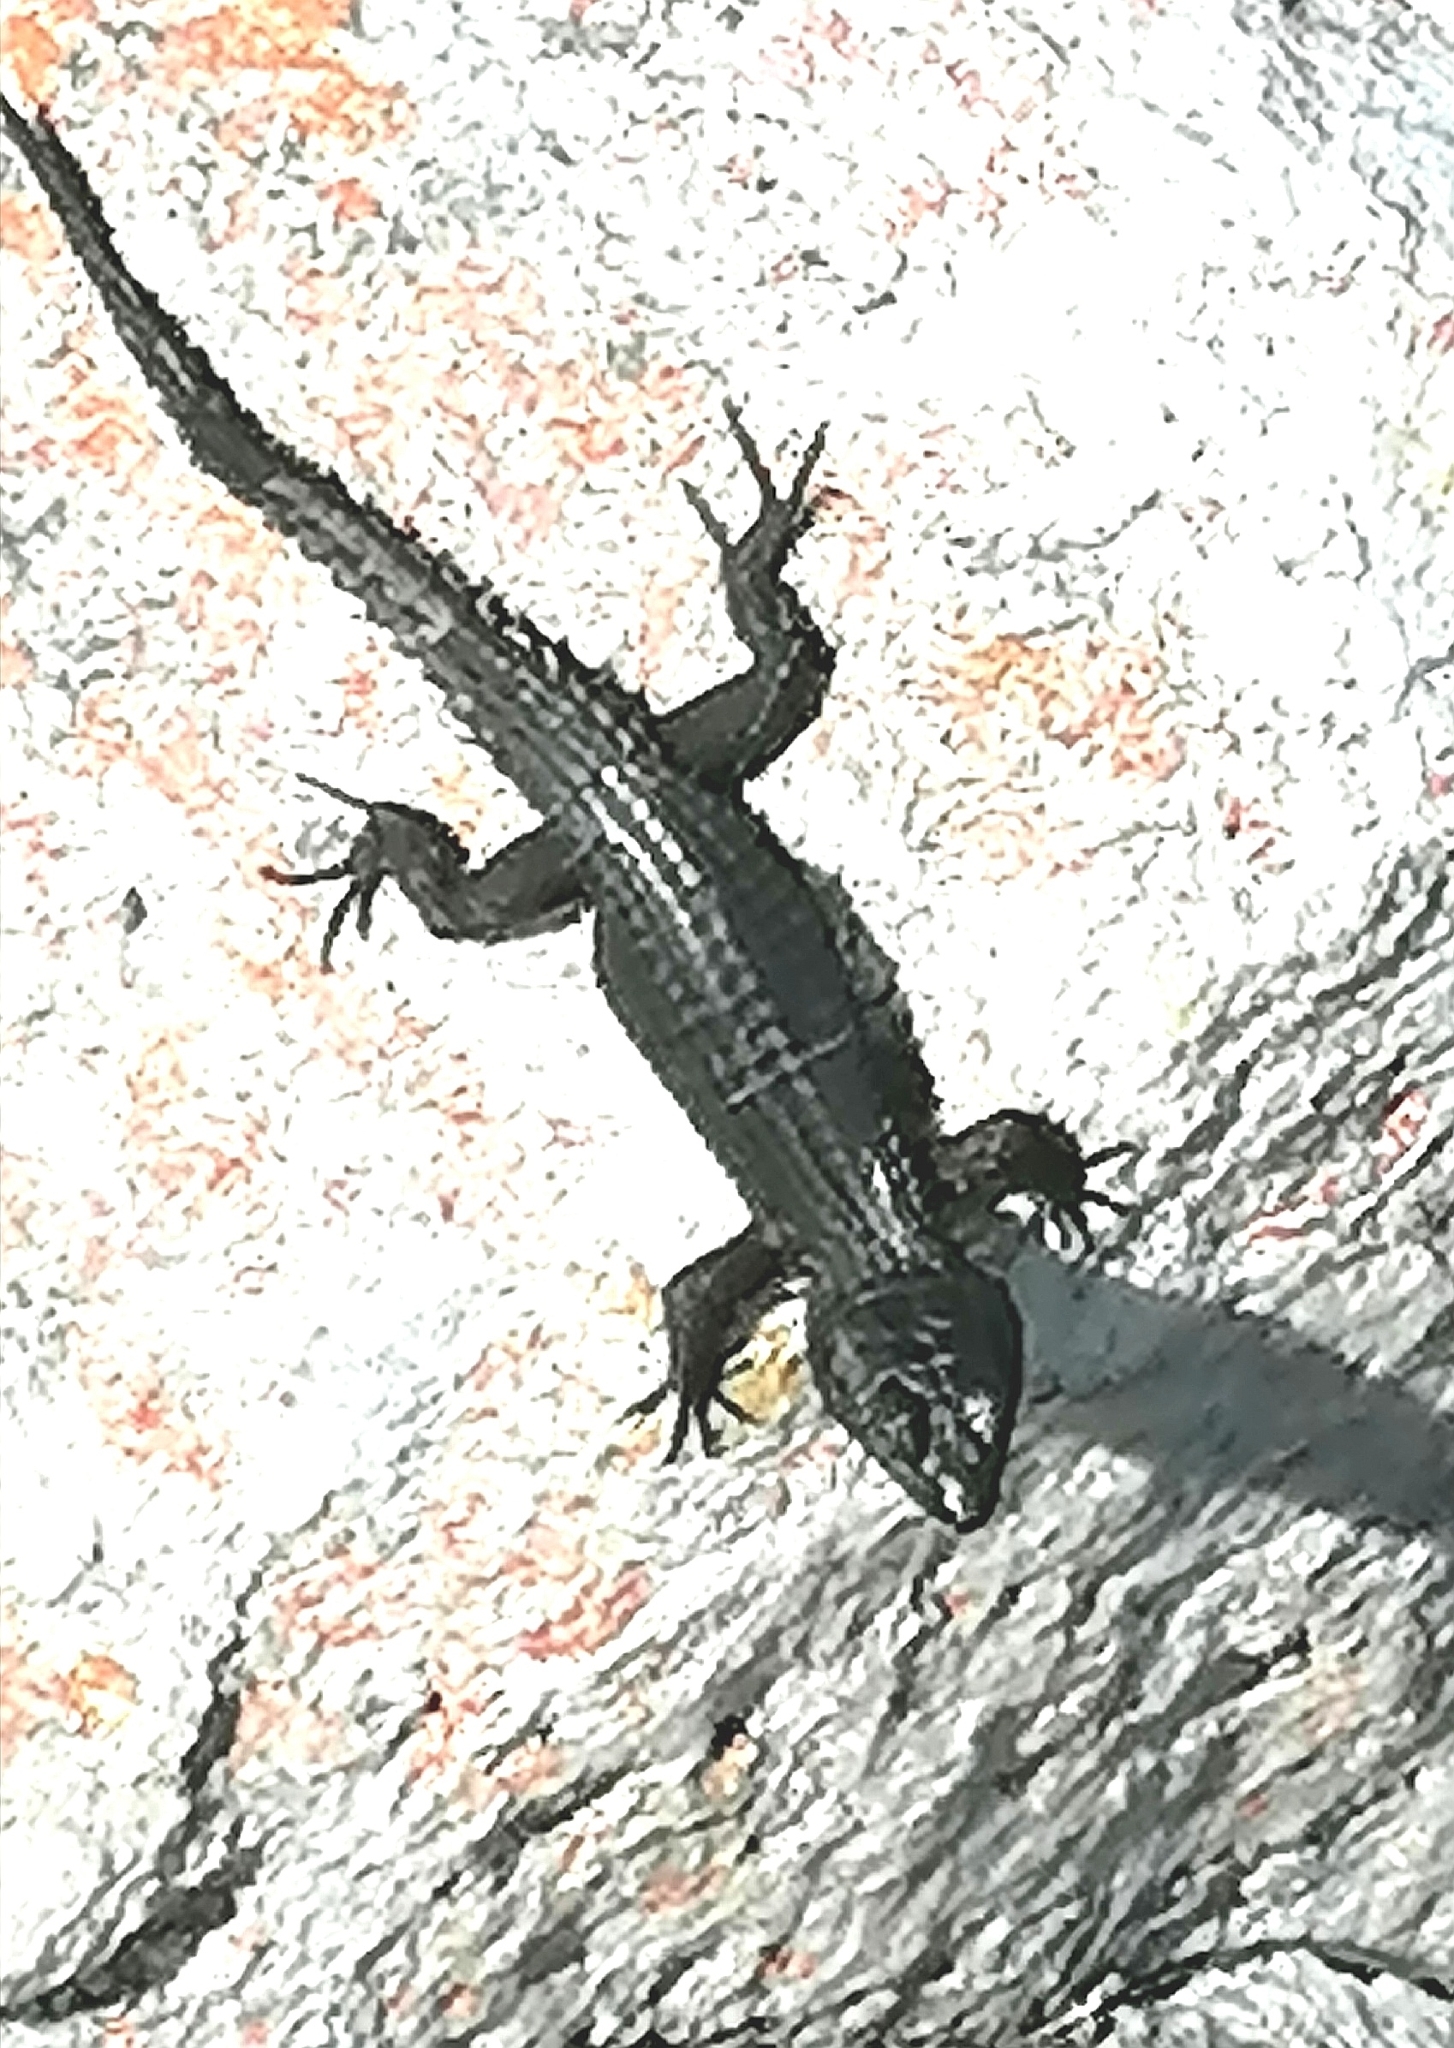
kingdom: Animalia
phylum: Chordata
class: Squamata
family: Cordylidae
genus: Cordylus
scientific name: Cordylus niger
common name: Black girdled lizard
